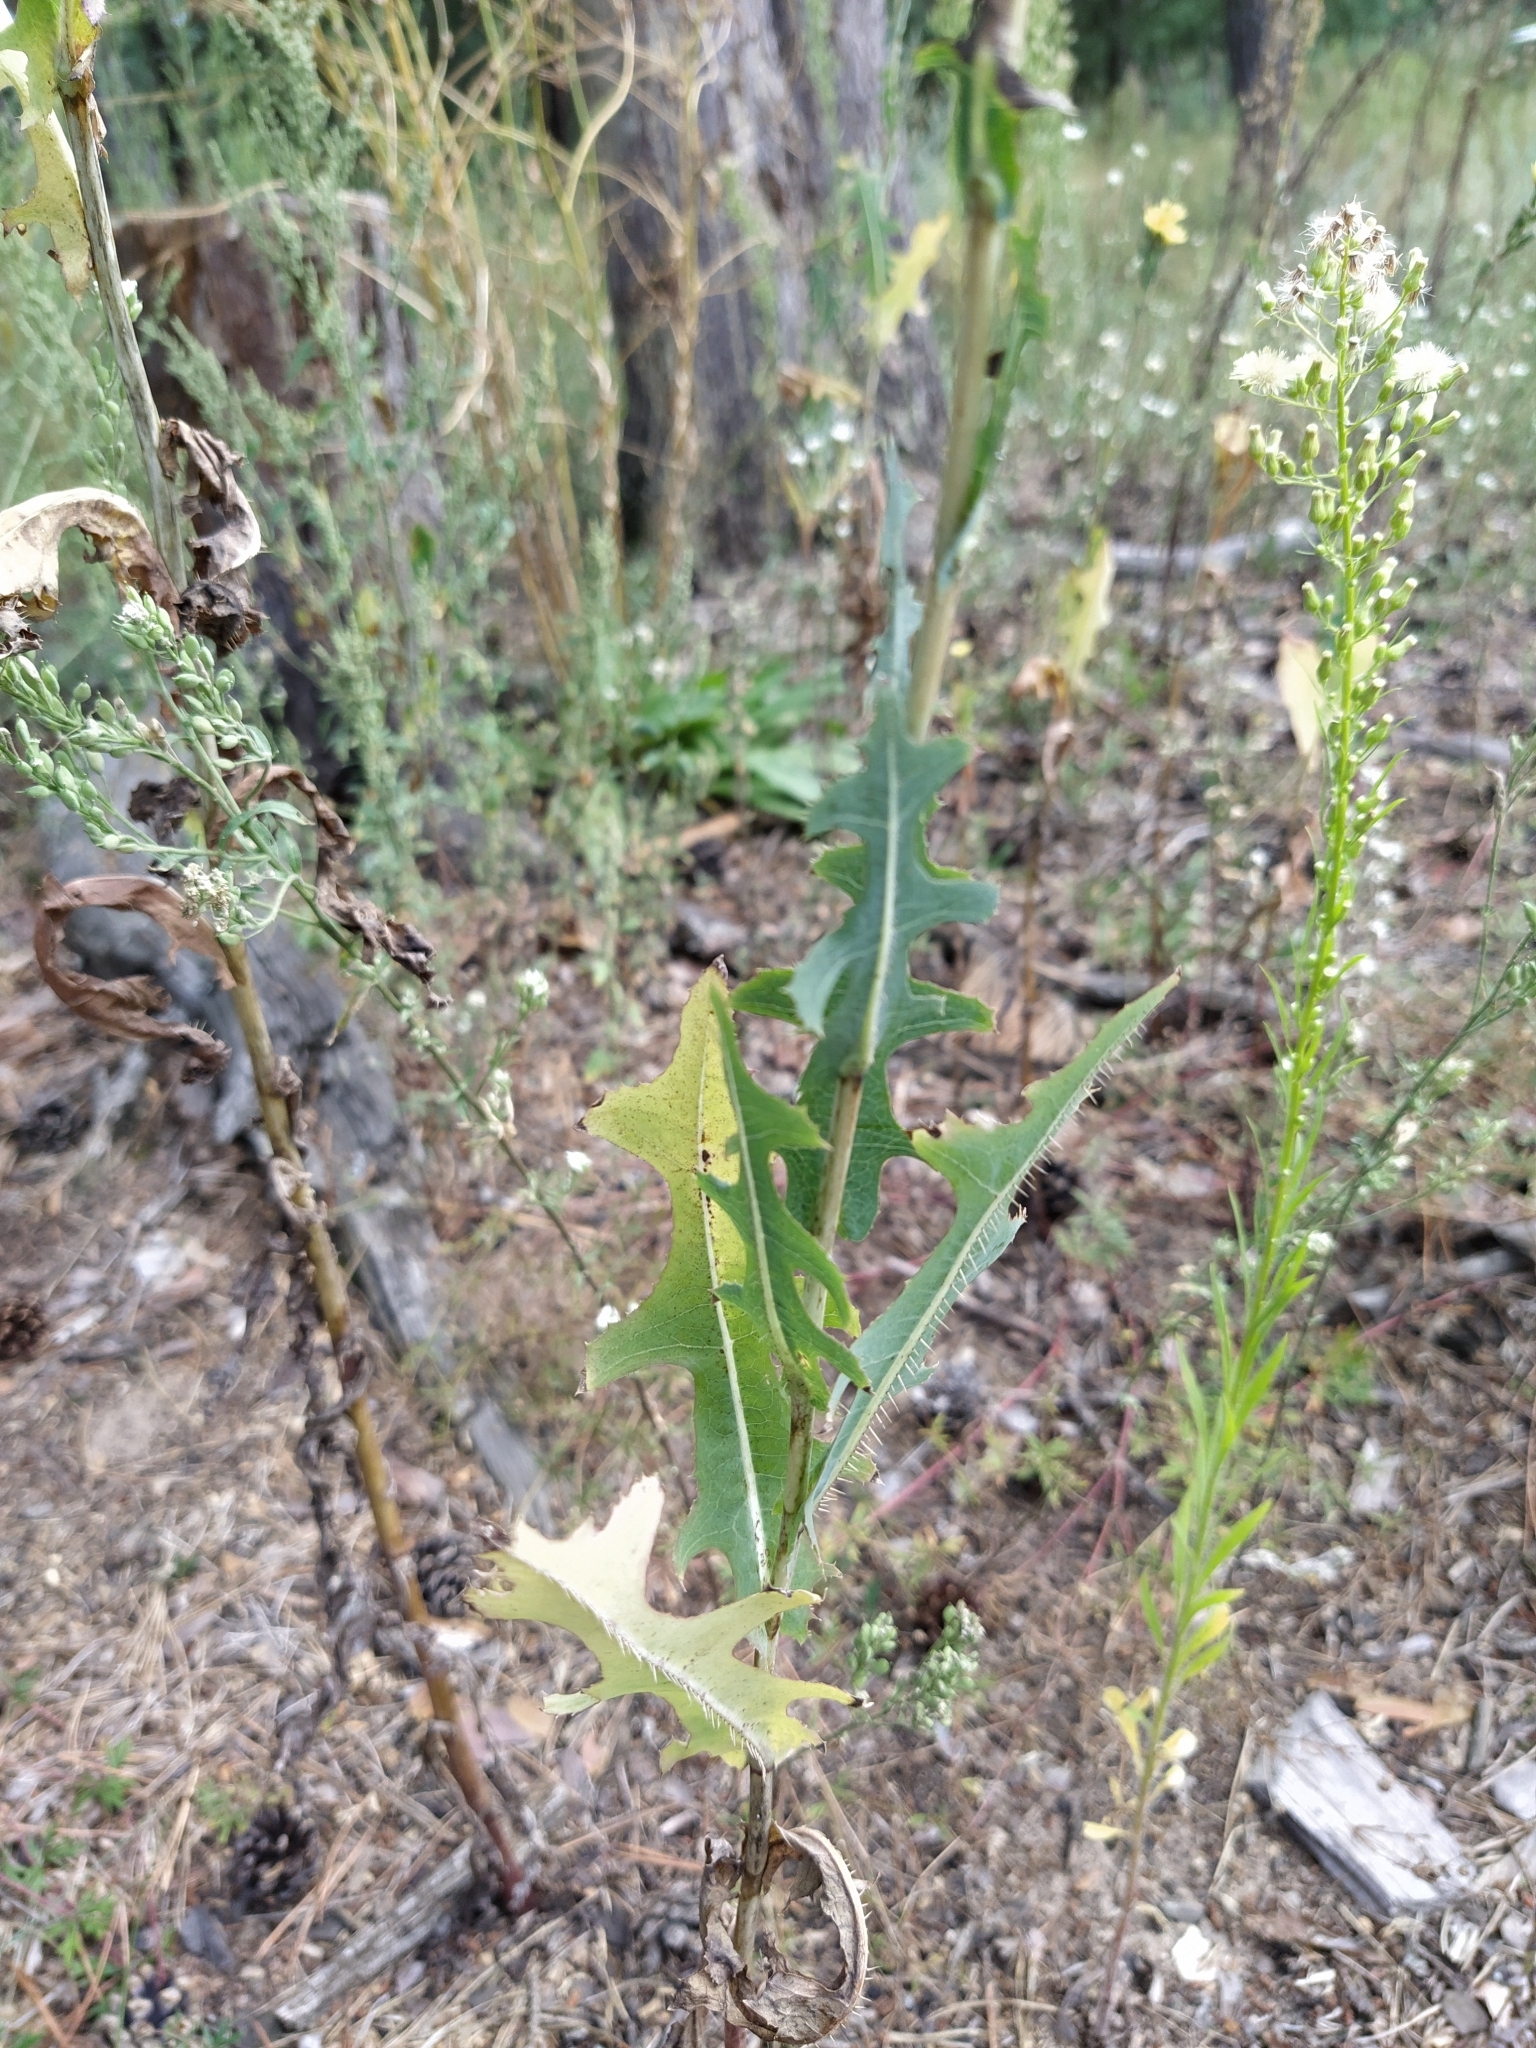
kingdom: Plantae
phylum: Tracheophyta
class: Magnoliopsida
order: Asterales
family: Asteraceae
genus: Lactuca
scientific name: Lactuca serriola
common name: Prickly lettuce
